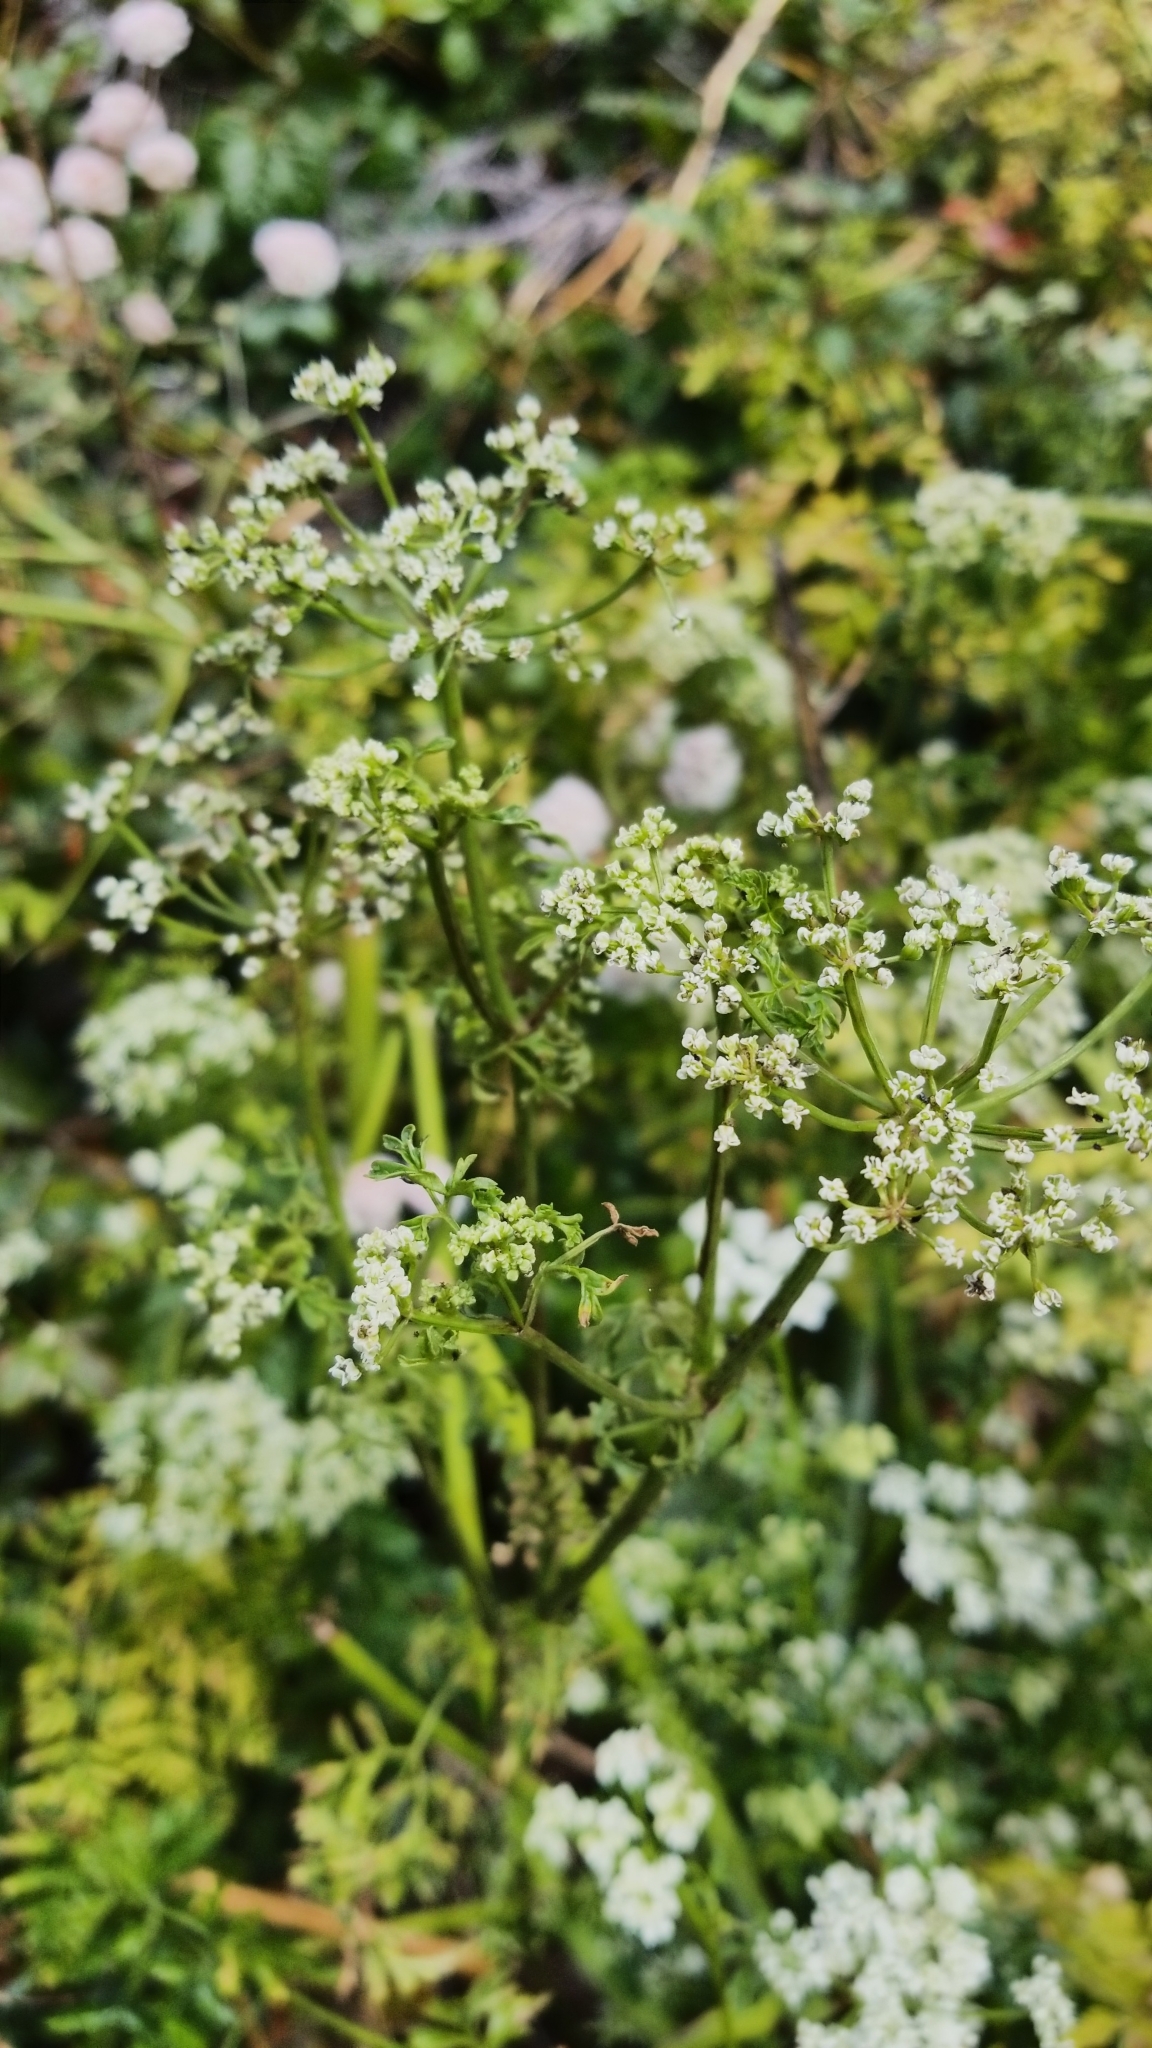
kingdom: Plantae
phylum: Tracheophyta
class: Magnoliopsida
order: Apiales
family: Apiaceae
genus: Conium
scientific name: Conium maculatum
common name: Hemlock
